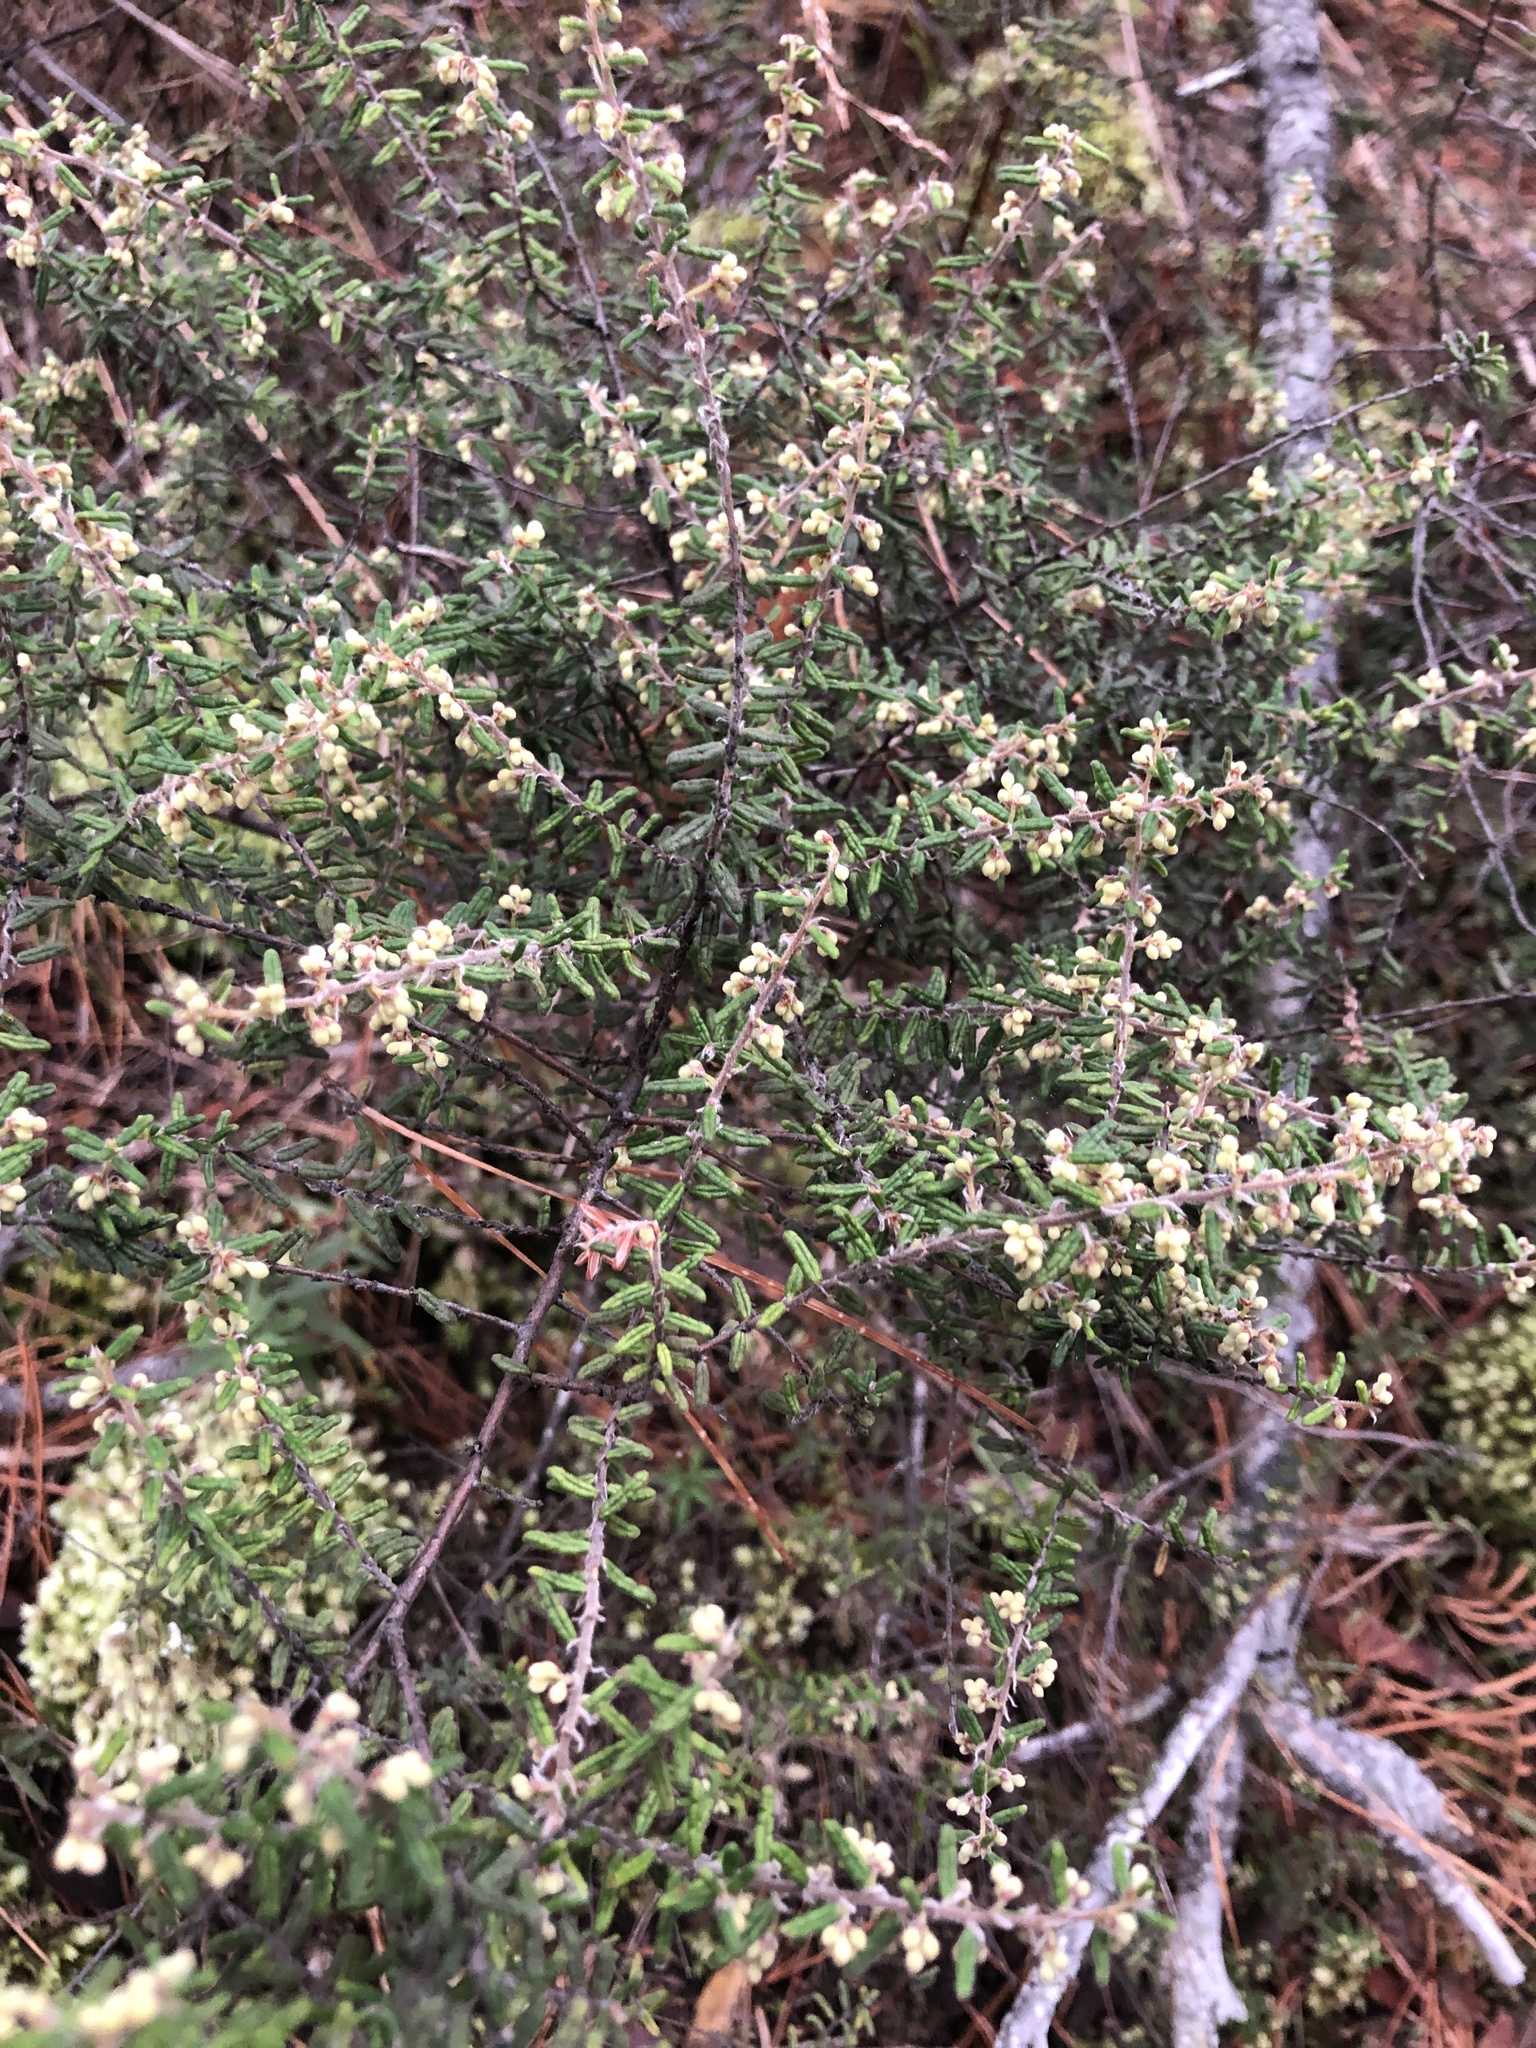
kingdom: Plantae
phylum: Tracheophyta
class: Magnoliopsida
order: Rosales
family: Rhamnaceae
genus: Pomaderris
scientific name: Pomaderris amoena
